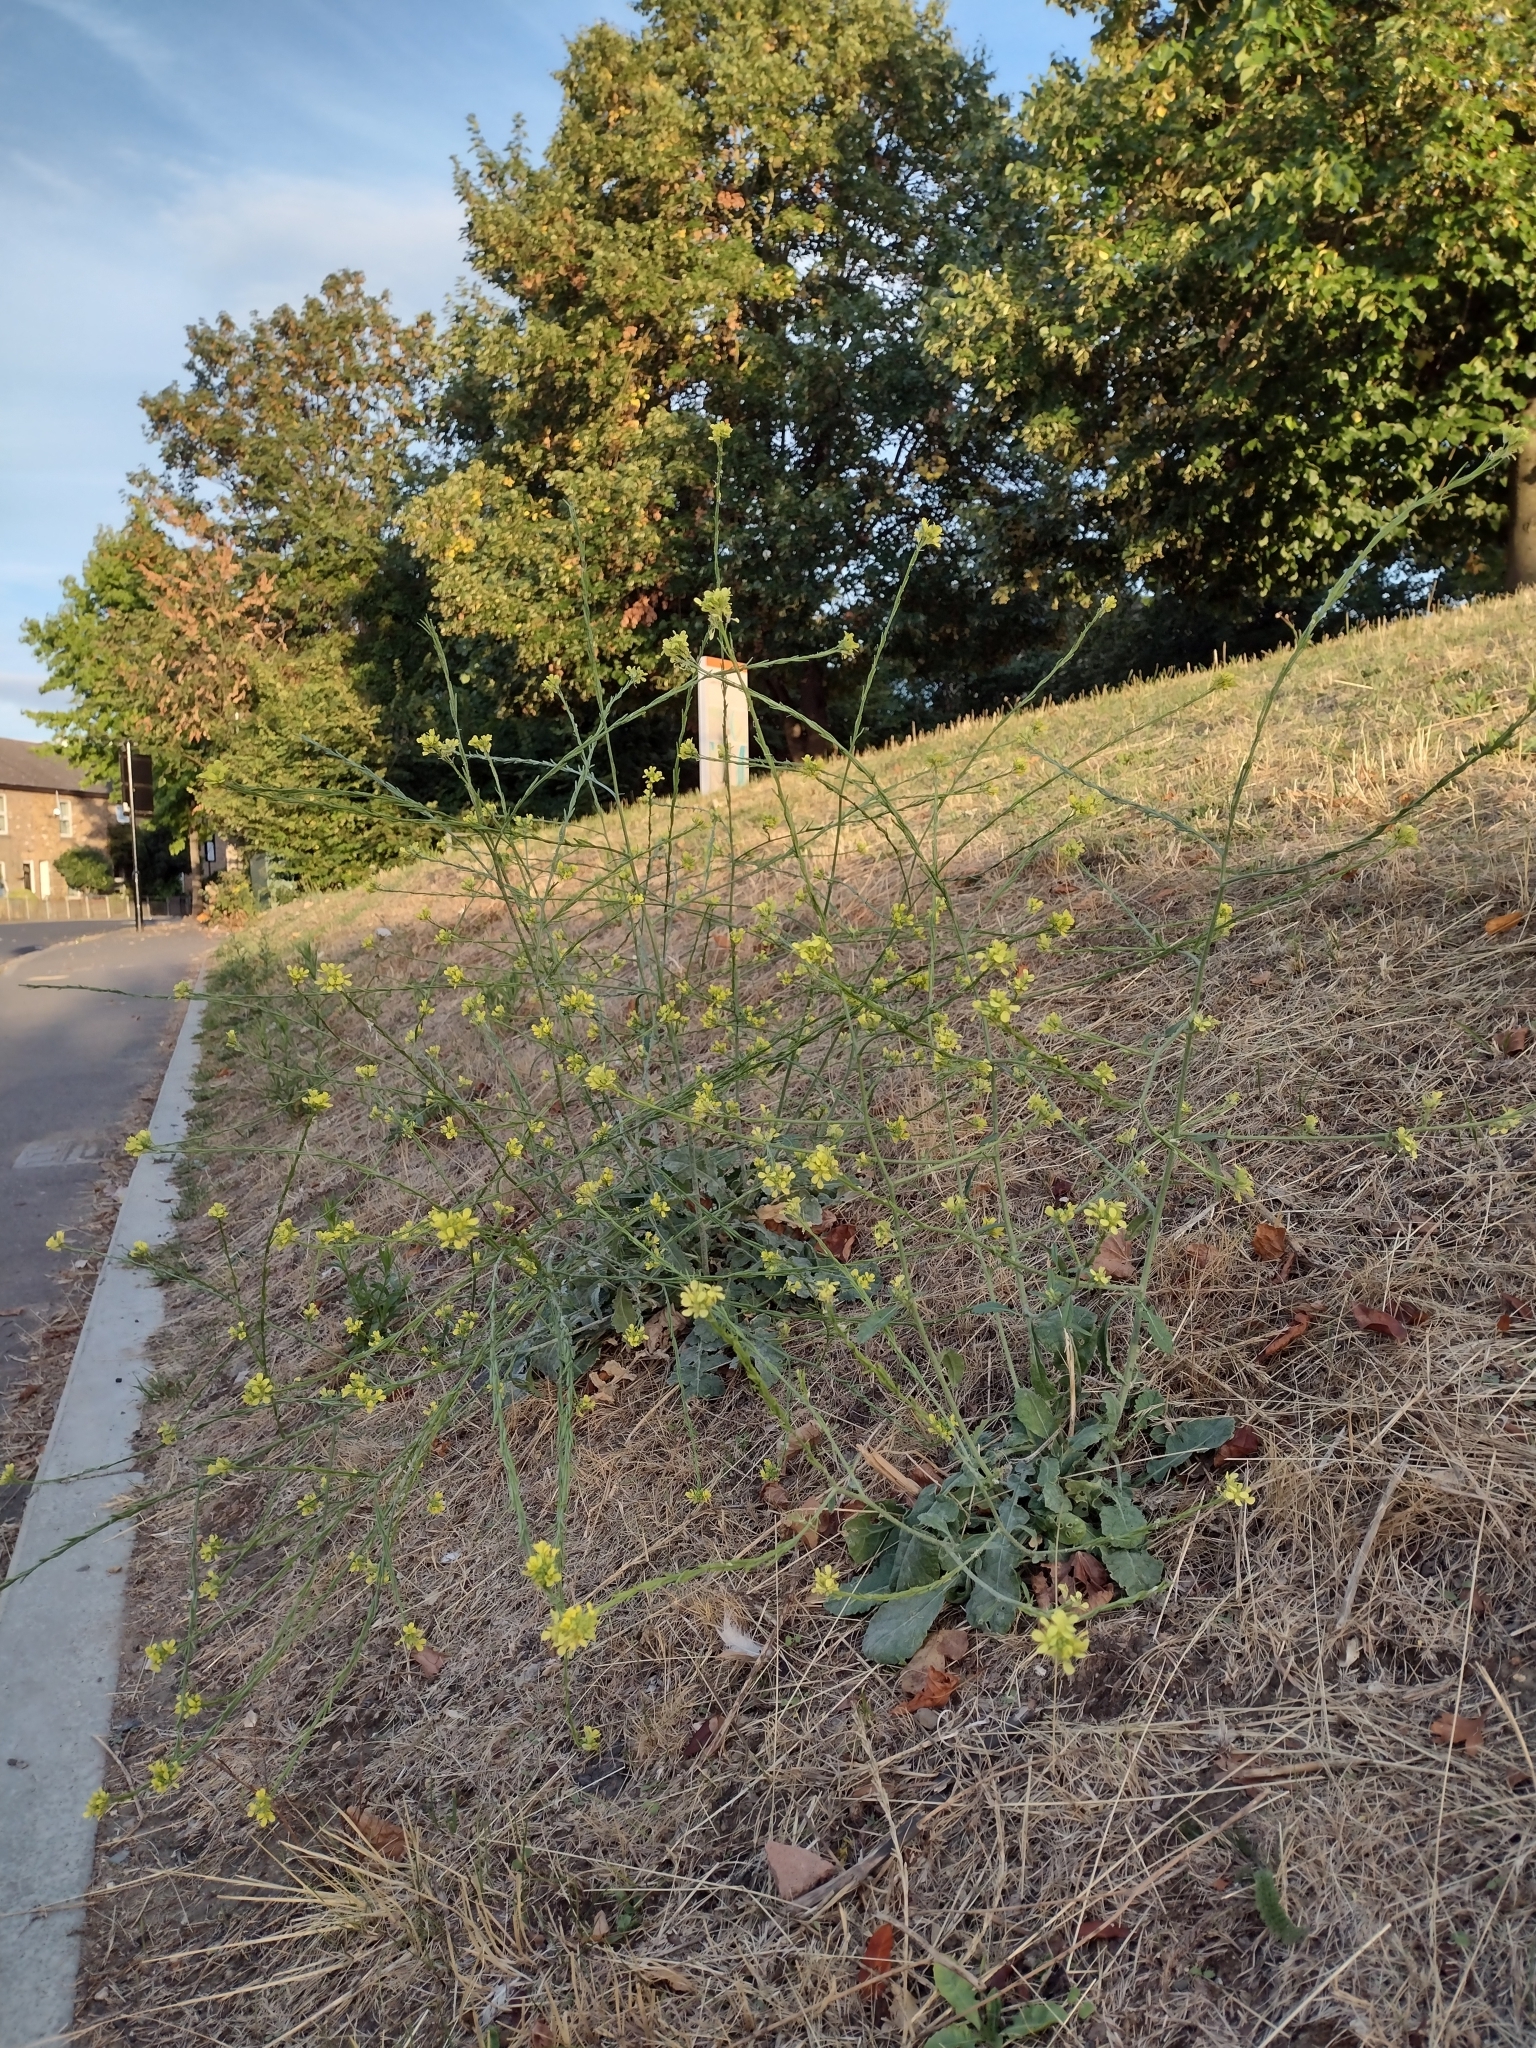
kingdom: Plantae
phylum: Tracheophyta
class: Magnoliopsida
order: Brassicales
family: Brassicaceae
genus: Hirschfeldia
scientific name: Hirschfeldia incana
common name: Hoary mustard
